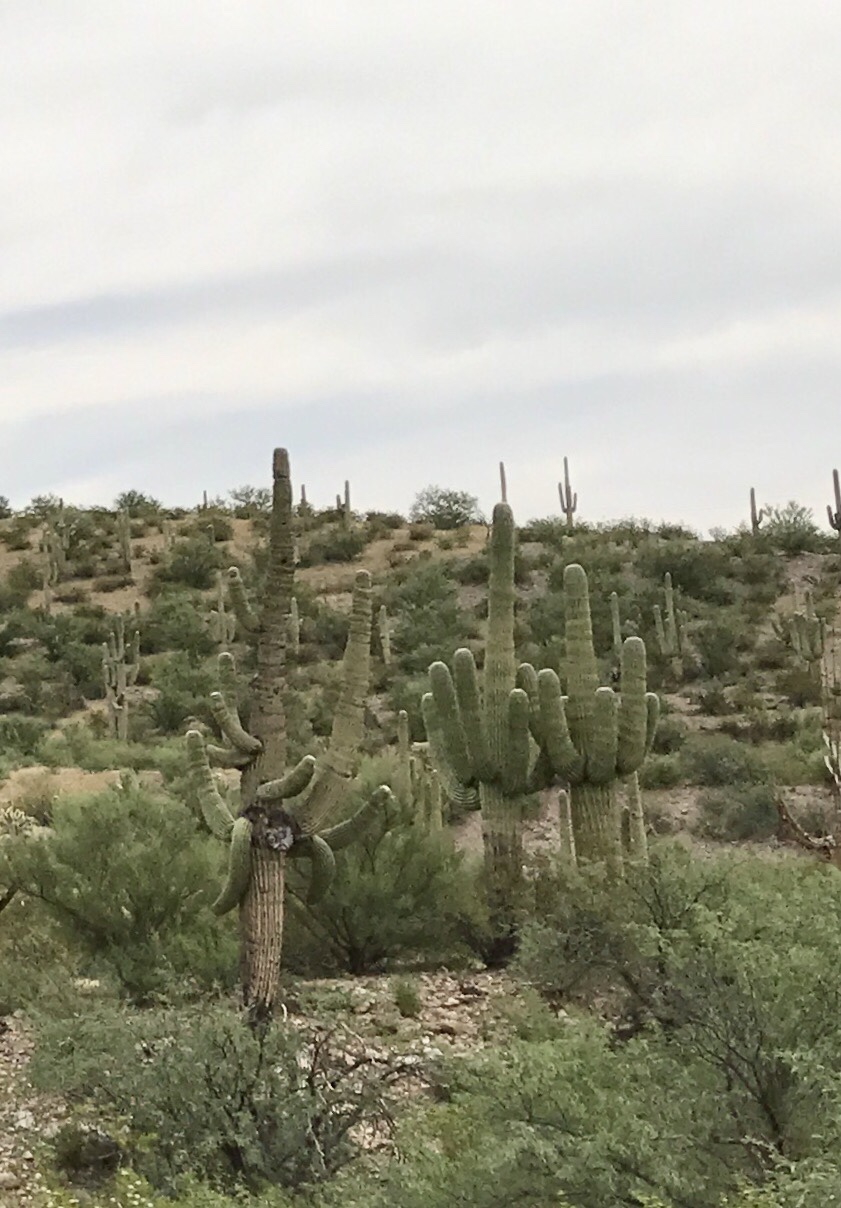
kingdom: Plantae
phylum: Tracheophyta
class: Magnoliopsida
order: Caryophyllales
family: Cactaceae
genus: Carnegiea
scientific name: Carnegiea gigantea
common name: Saguaro
